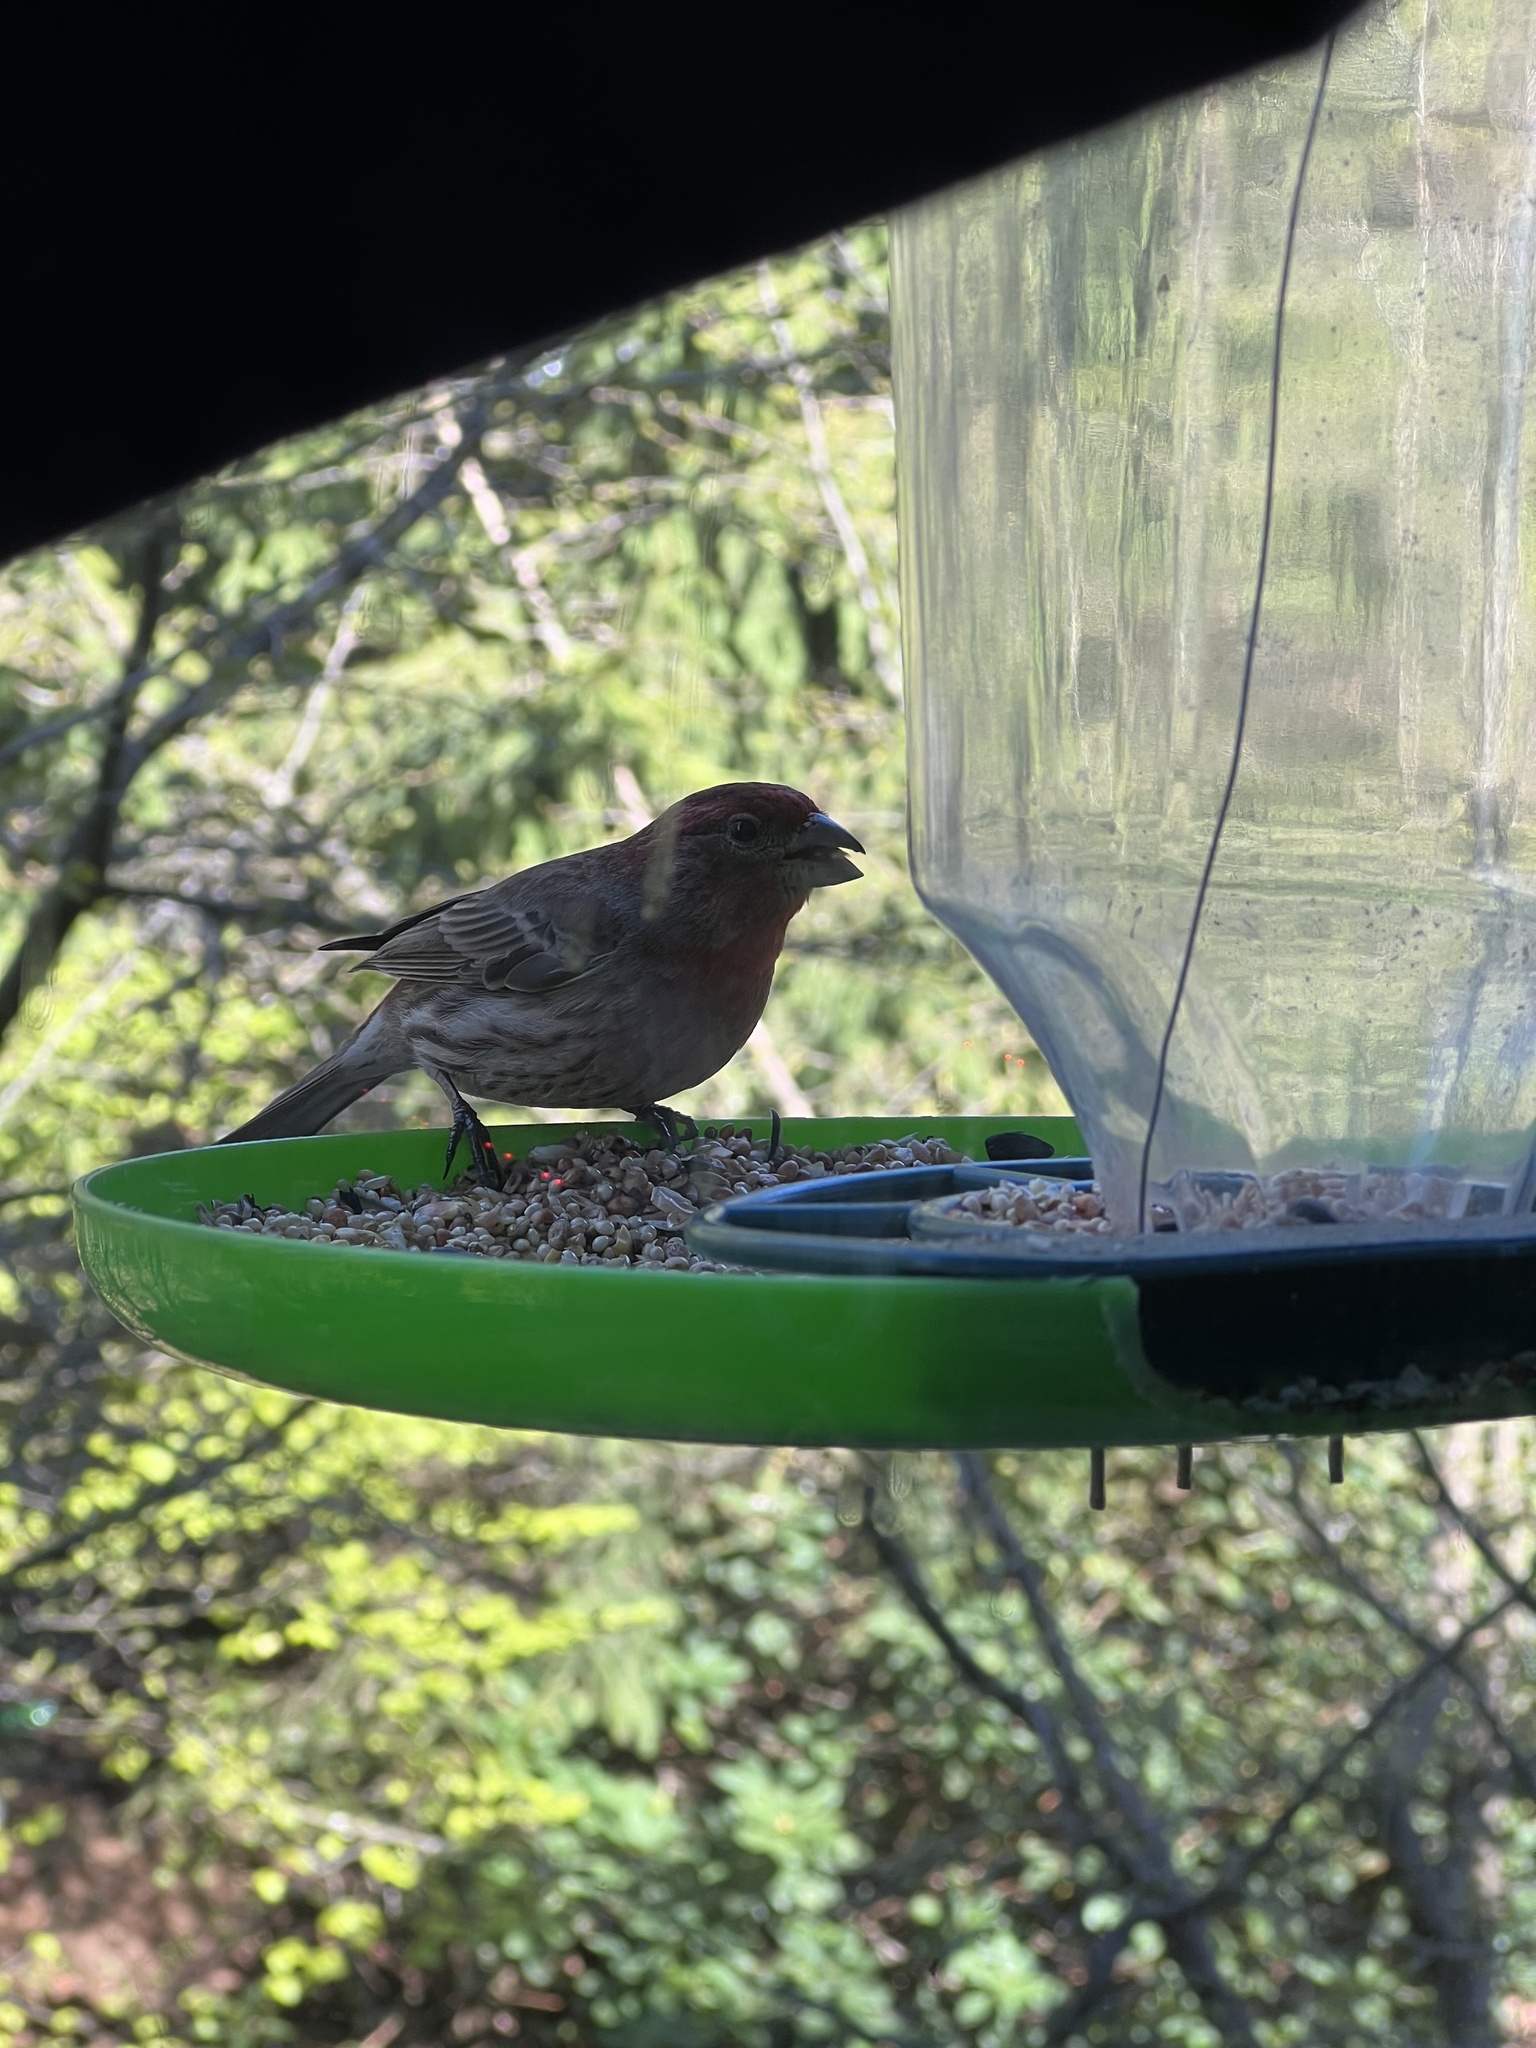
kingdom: Animalia
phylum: Chordata
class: Aves
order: Passeriformes
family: Fringillidae
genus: Haemorhous
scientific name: Haemorhous mexicanus
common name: House finch
